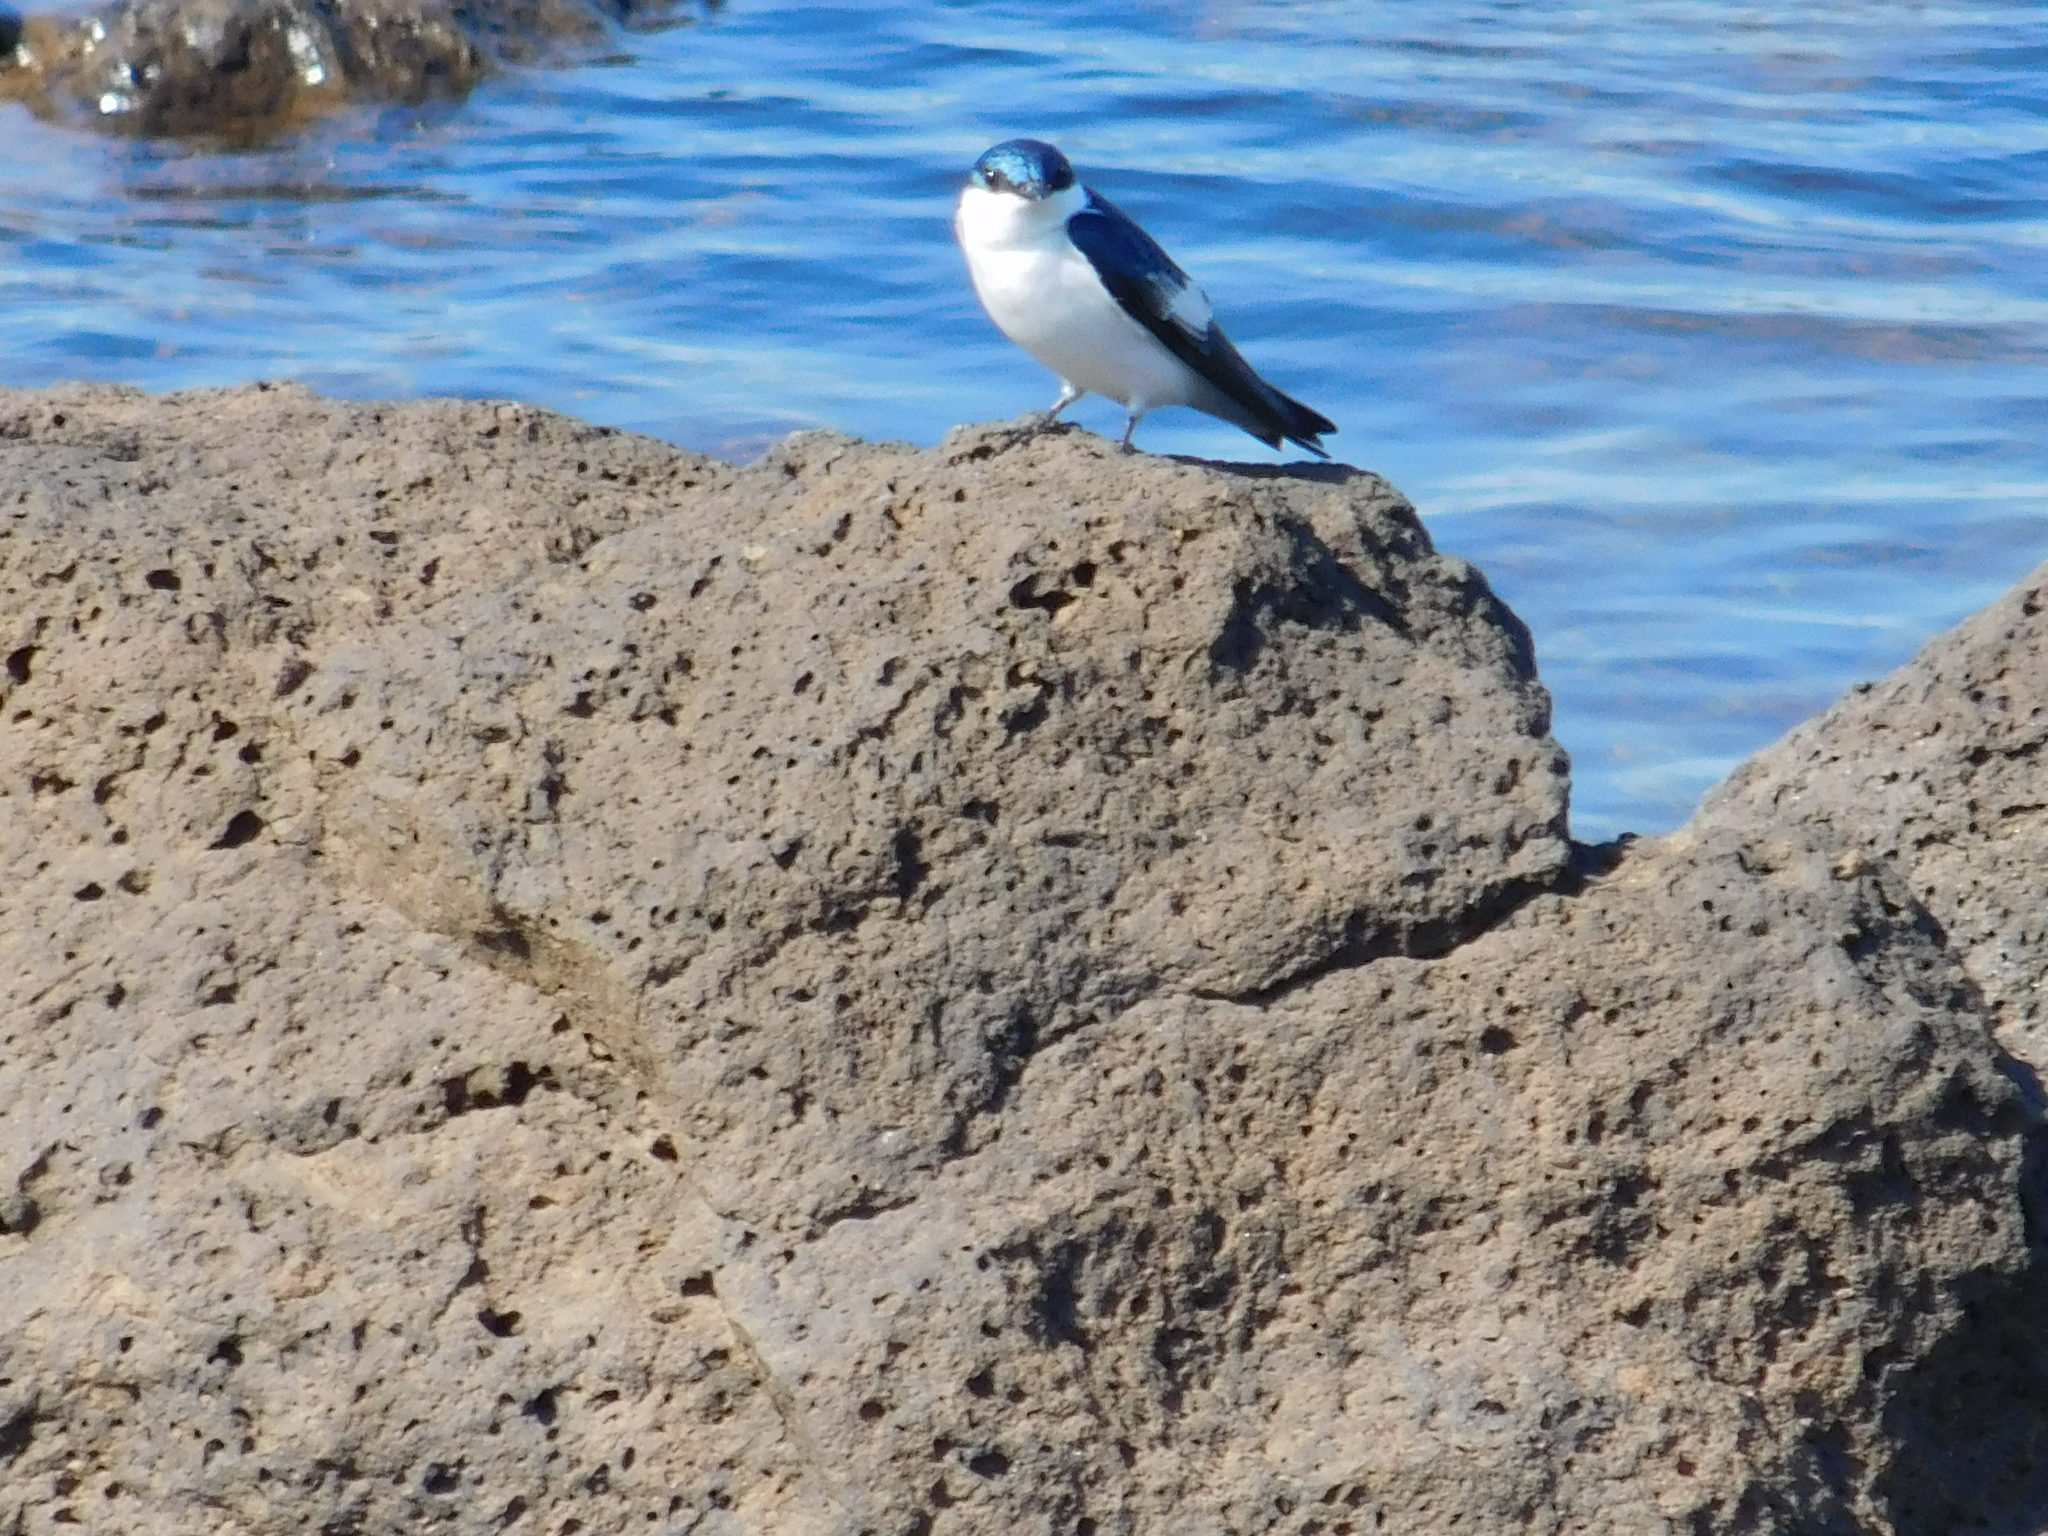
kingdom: Animalia
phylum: Chordata
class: Aves
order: Passeriformes
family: Hirundinidae
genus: Tachycineta
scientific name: Tachycineta albiventer
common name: White-winged swallow
